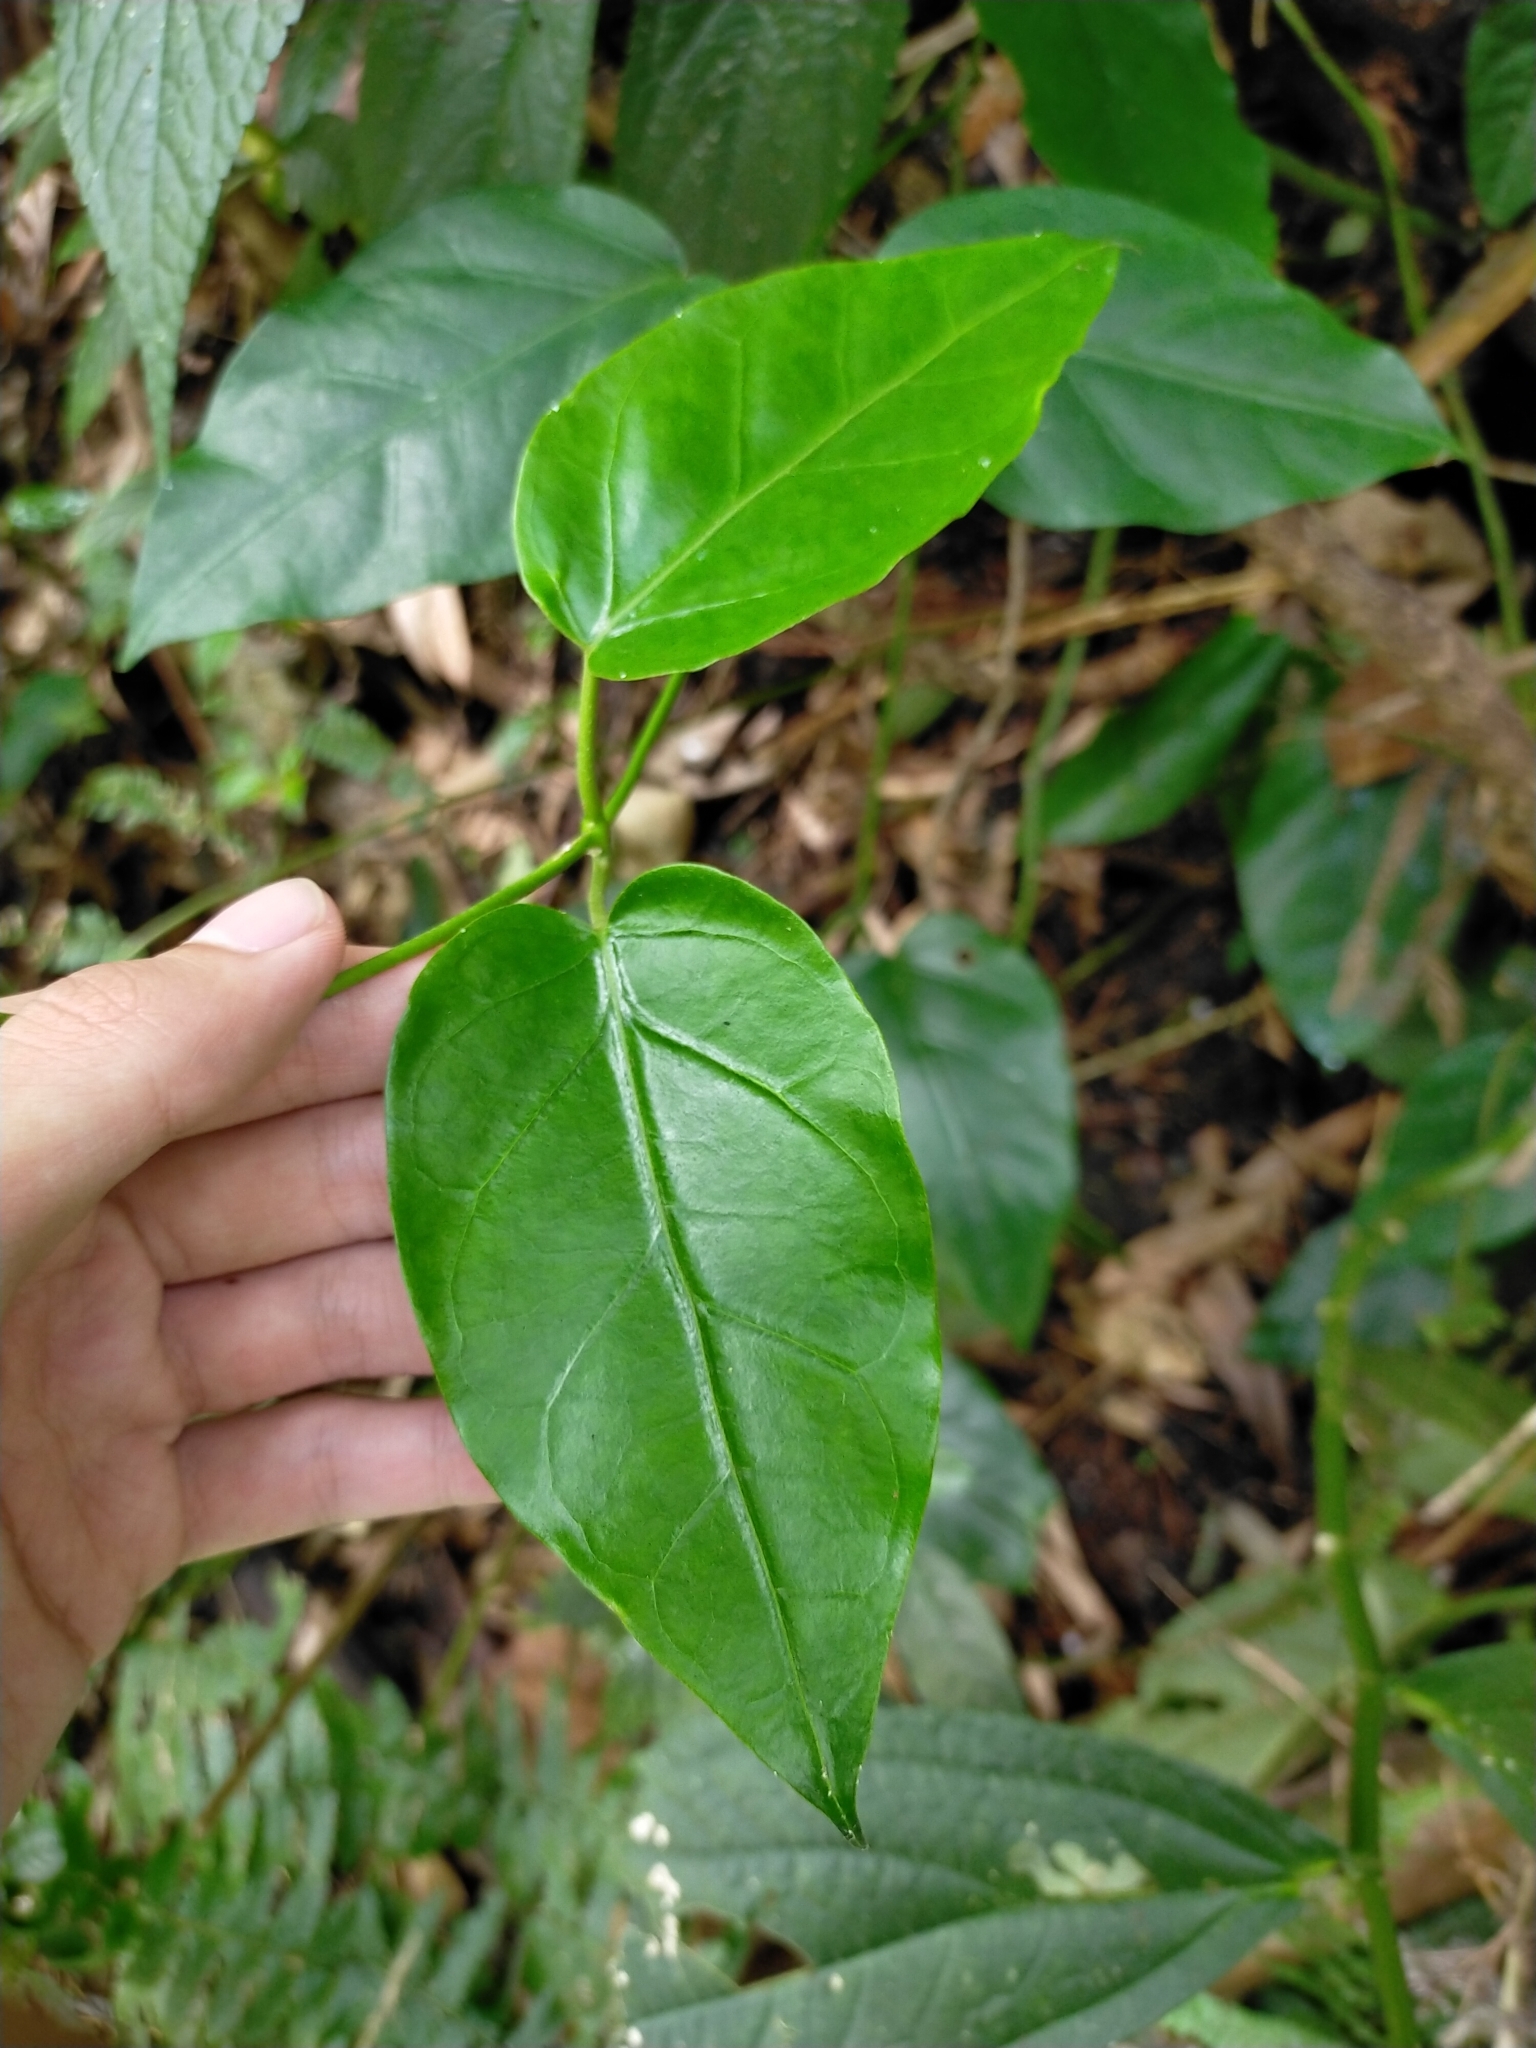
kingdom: Plantae
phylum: Tracheophyta
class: Magnoliopsida
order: Gentianales
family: Apocynaceae
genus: Sinomarsdenia
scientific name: Sinomarsdenia formosana
